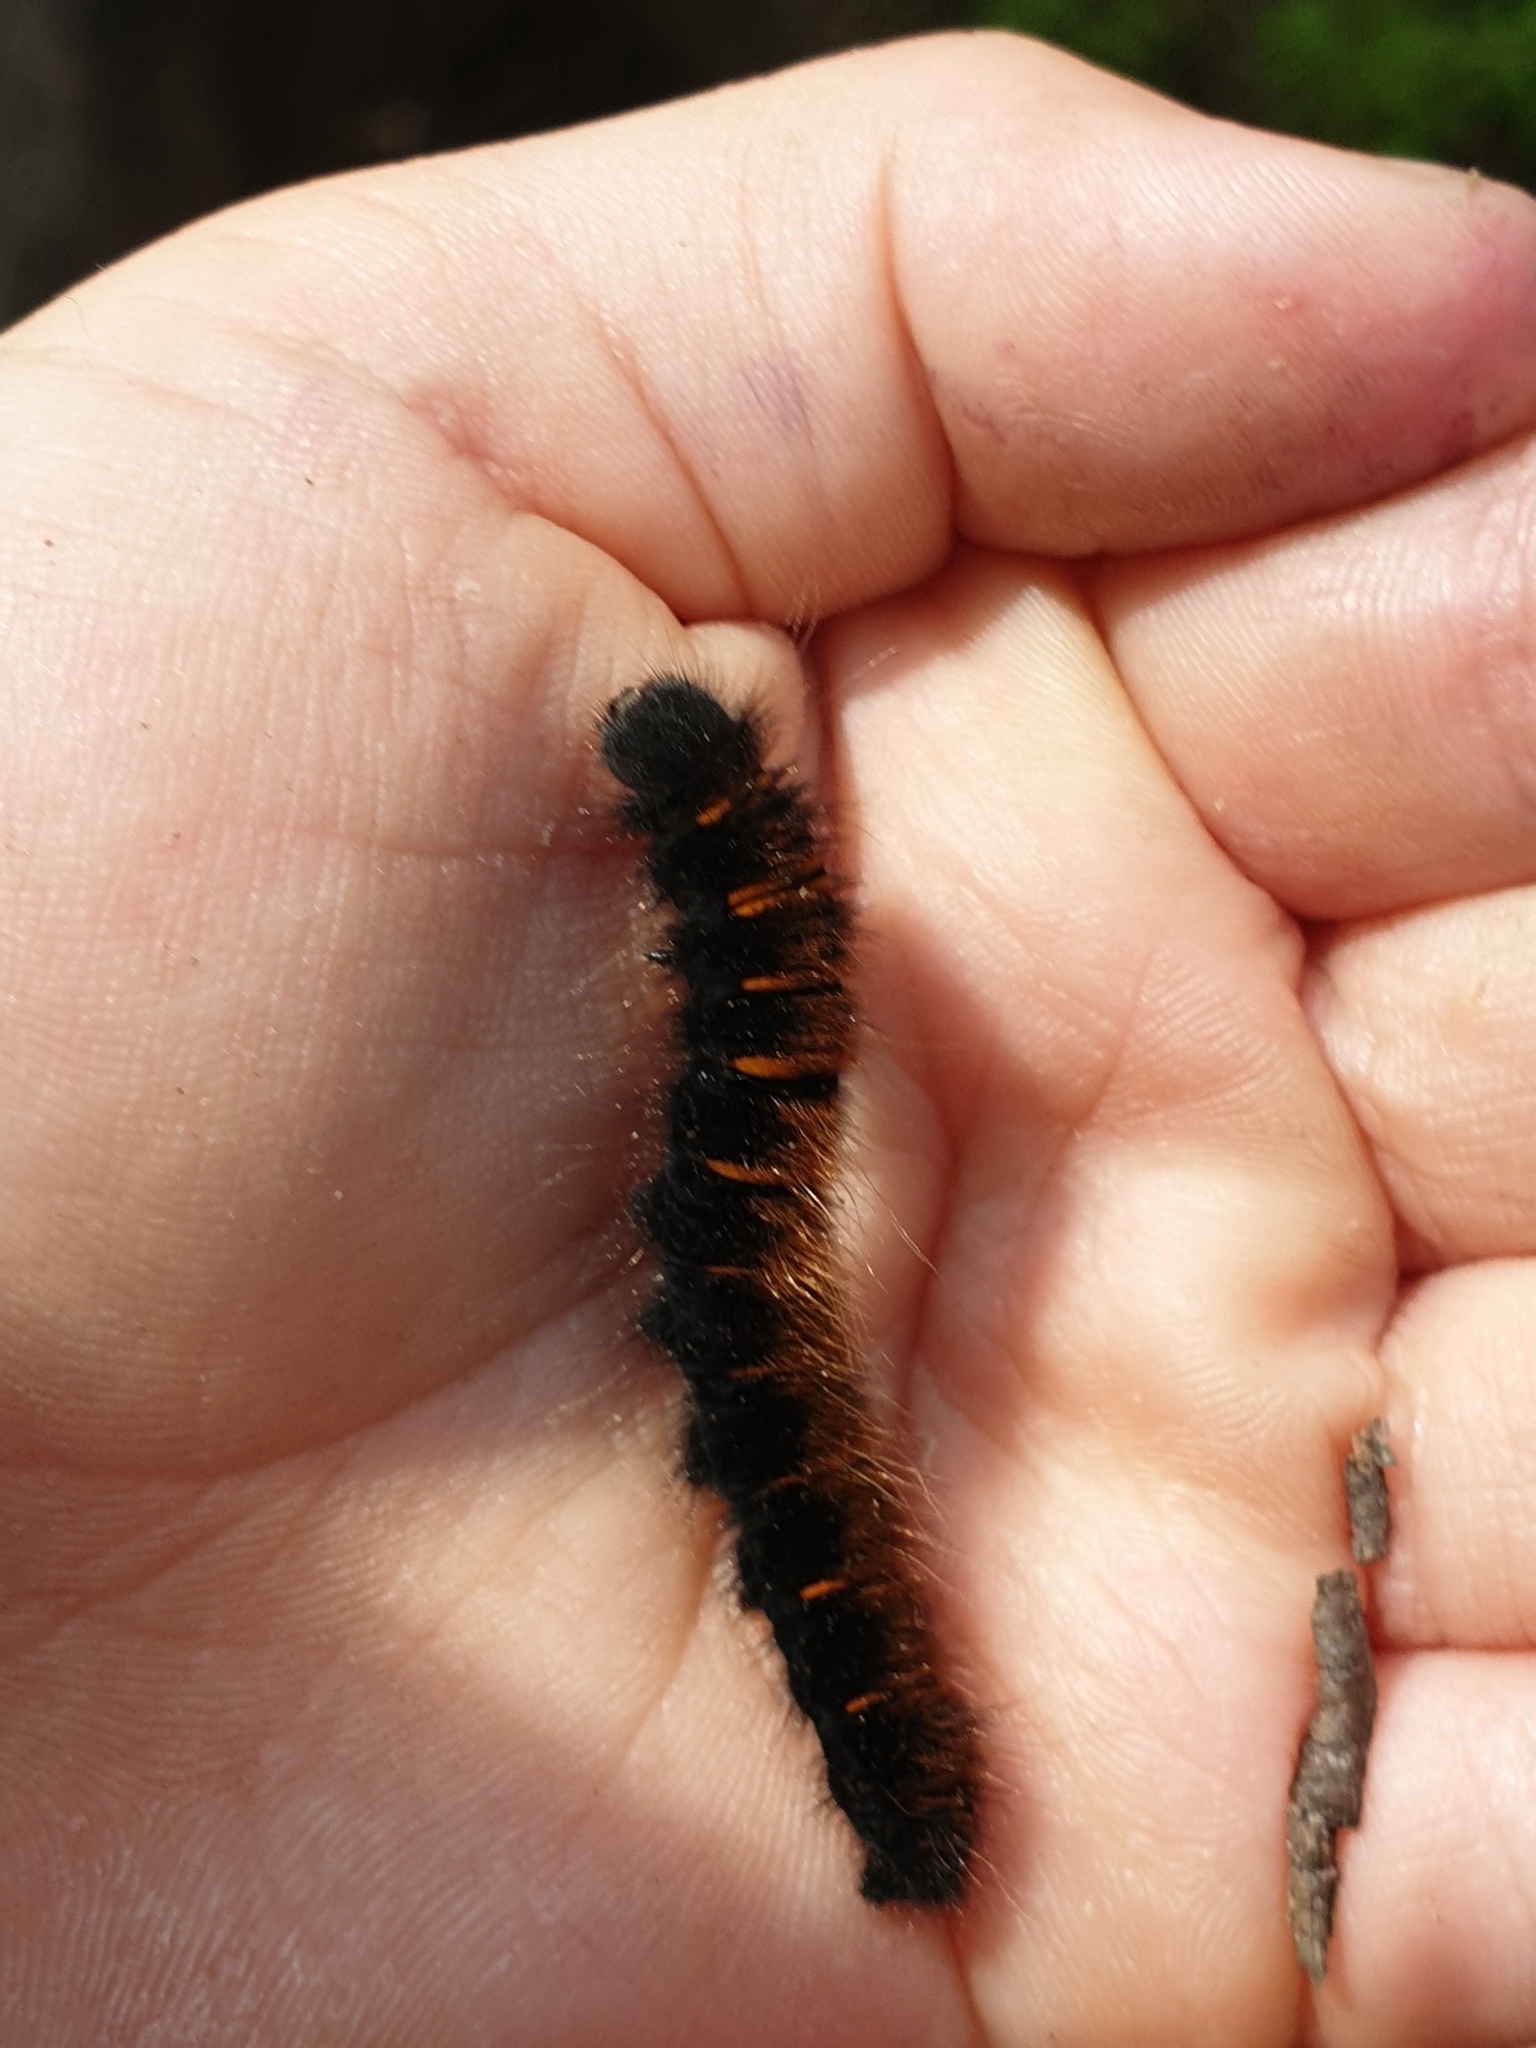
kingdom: Animalia
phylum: Arthropoda
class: Insecta
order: Lepidoptera
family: Lasiocampidae
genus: Macrothylacia
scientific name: Macrothylacia rubi
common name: Fox moth
